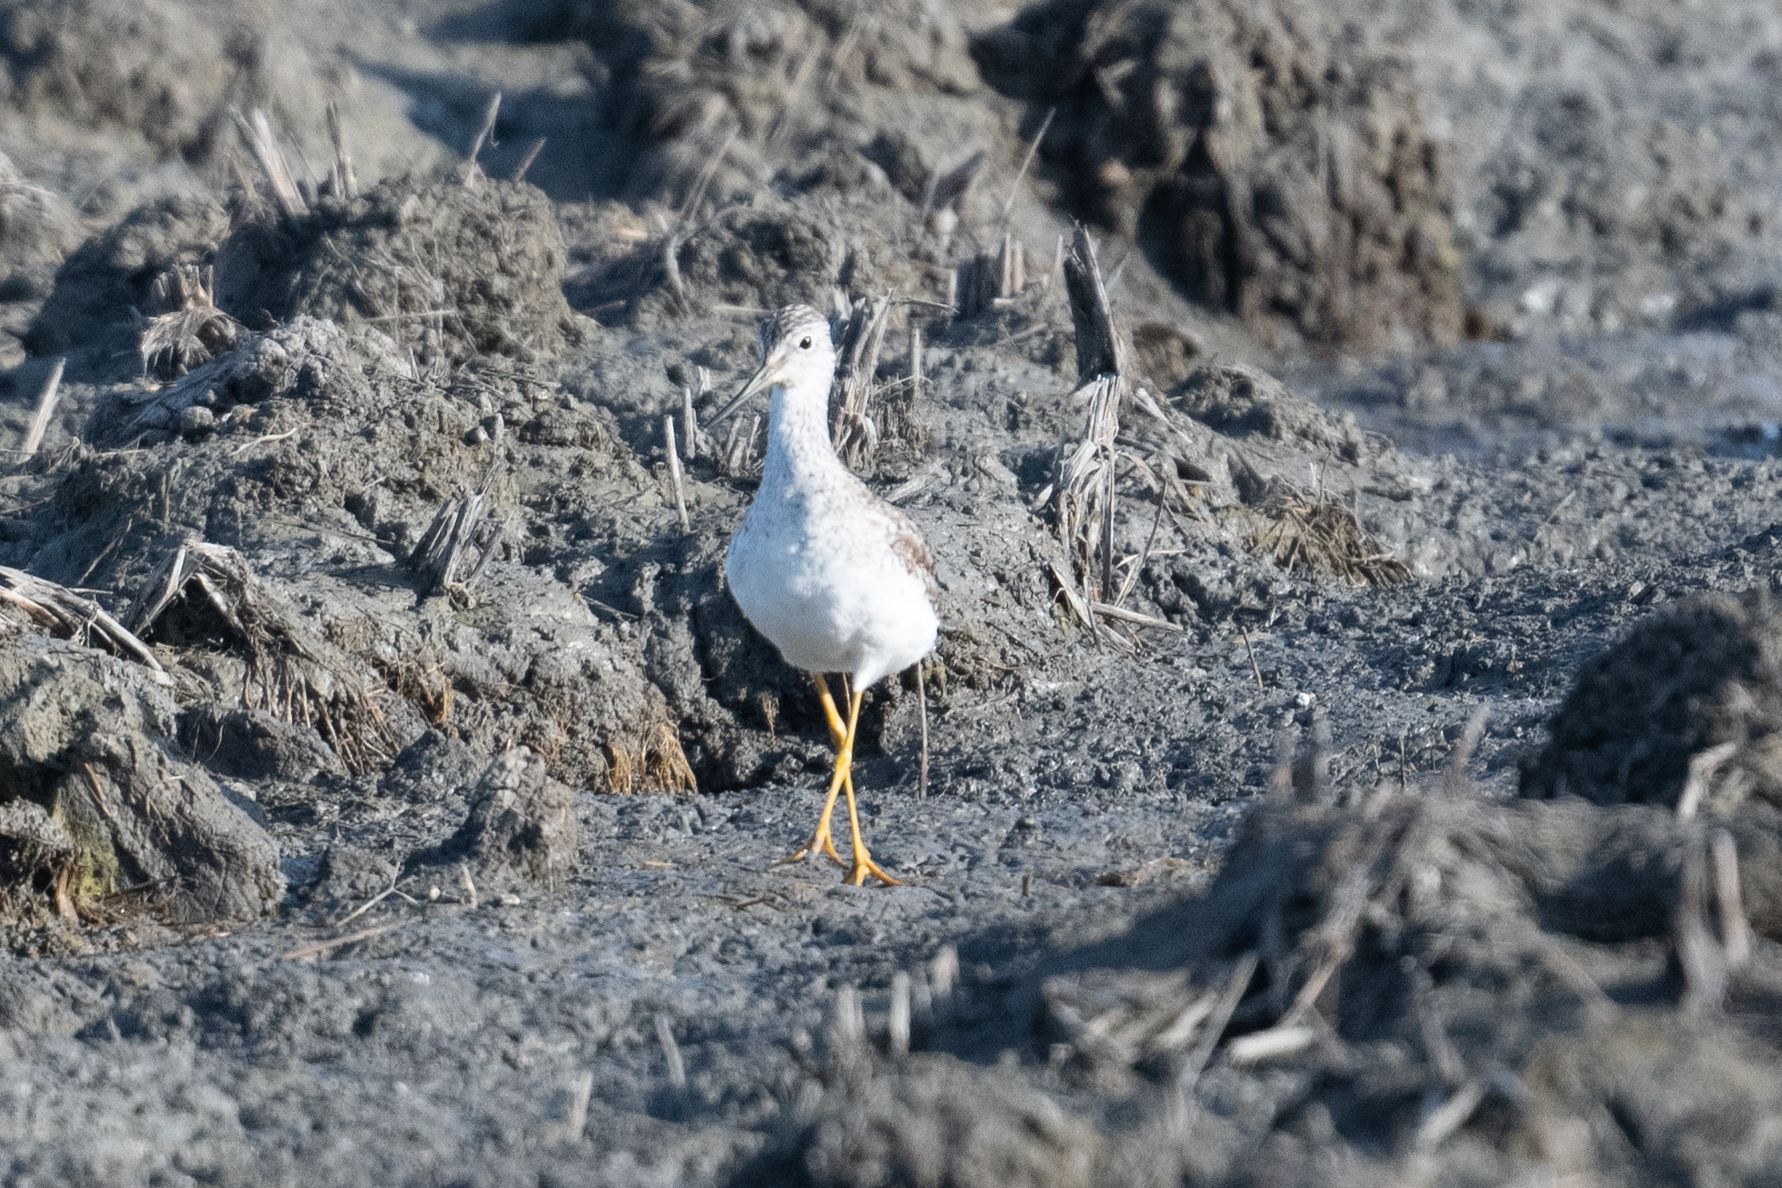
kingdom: Animalia
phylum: Chordata
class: Aves
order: Charadriiformes
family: Scolopacidae
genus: Tringa
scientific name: Tringa melanoleuca
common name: Greater yellowlegs
